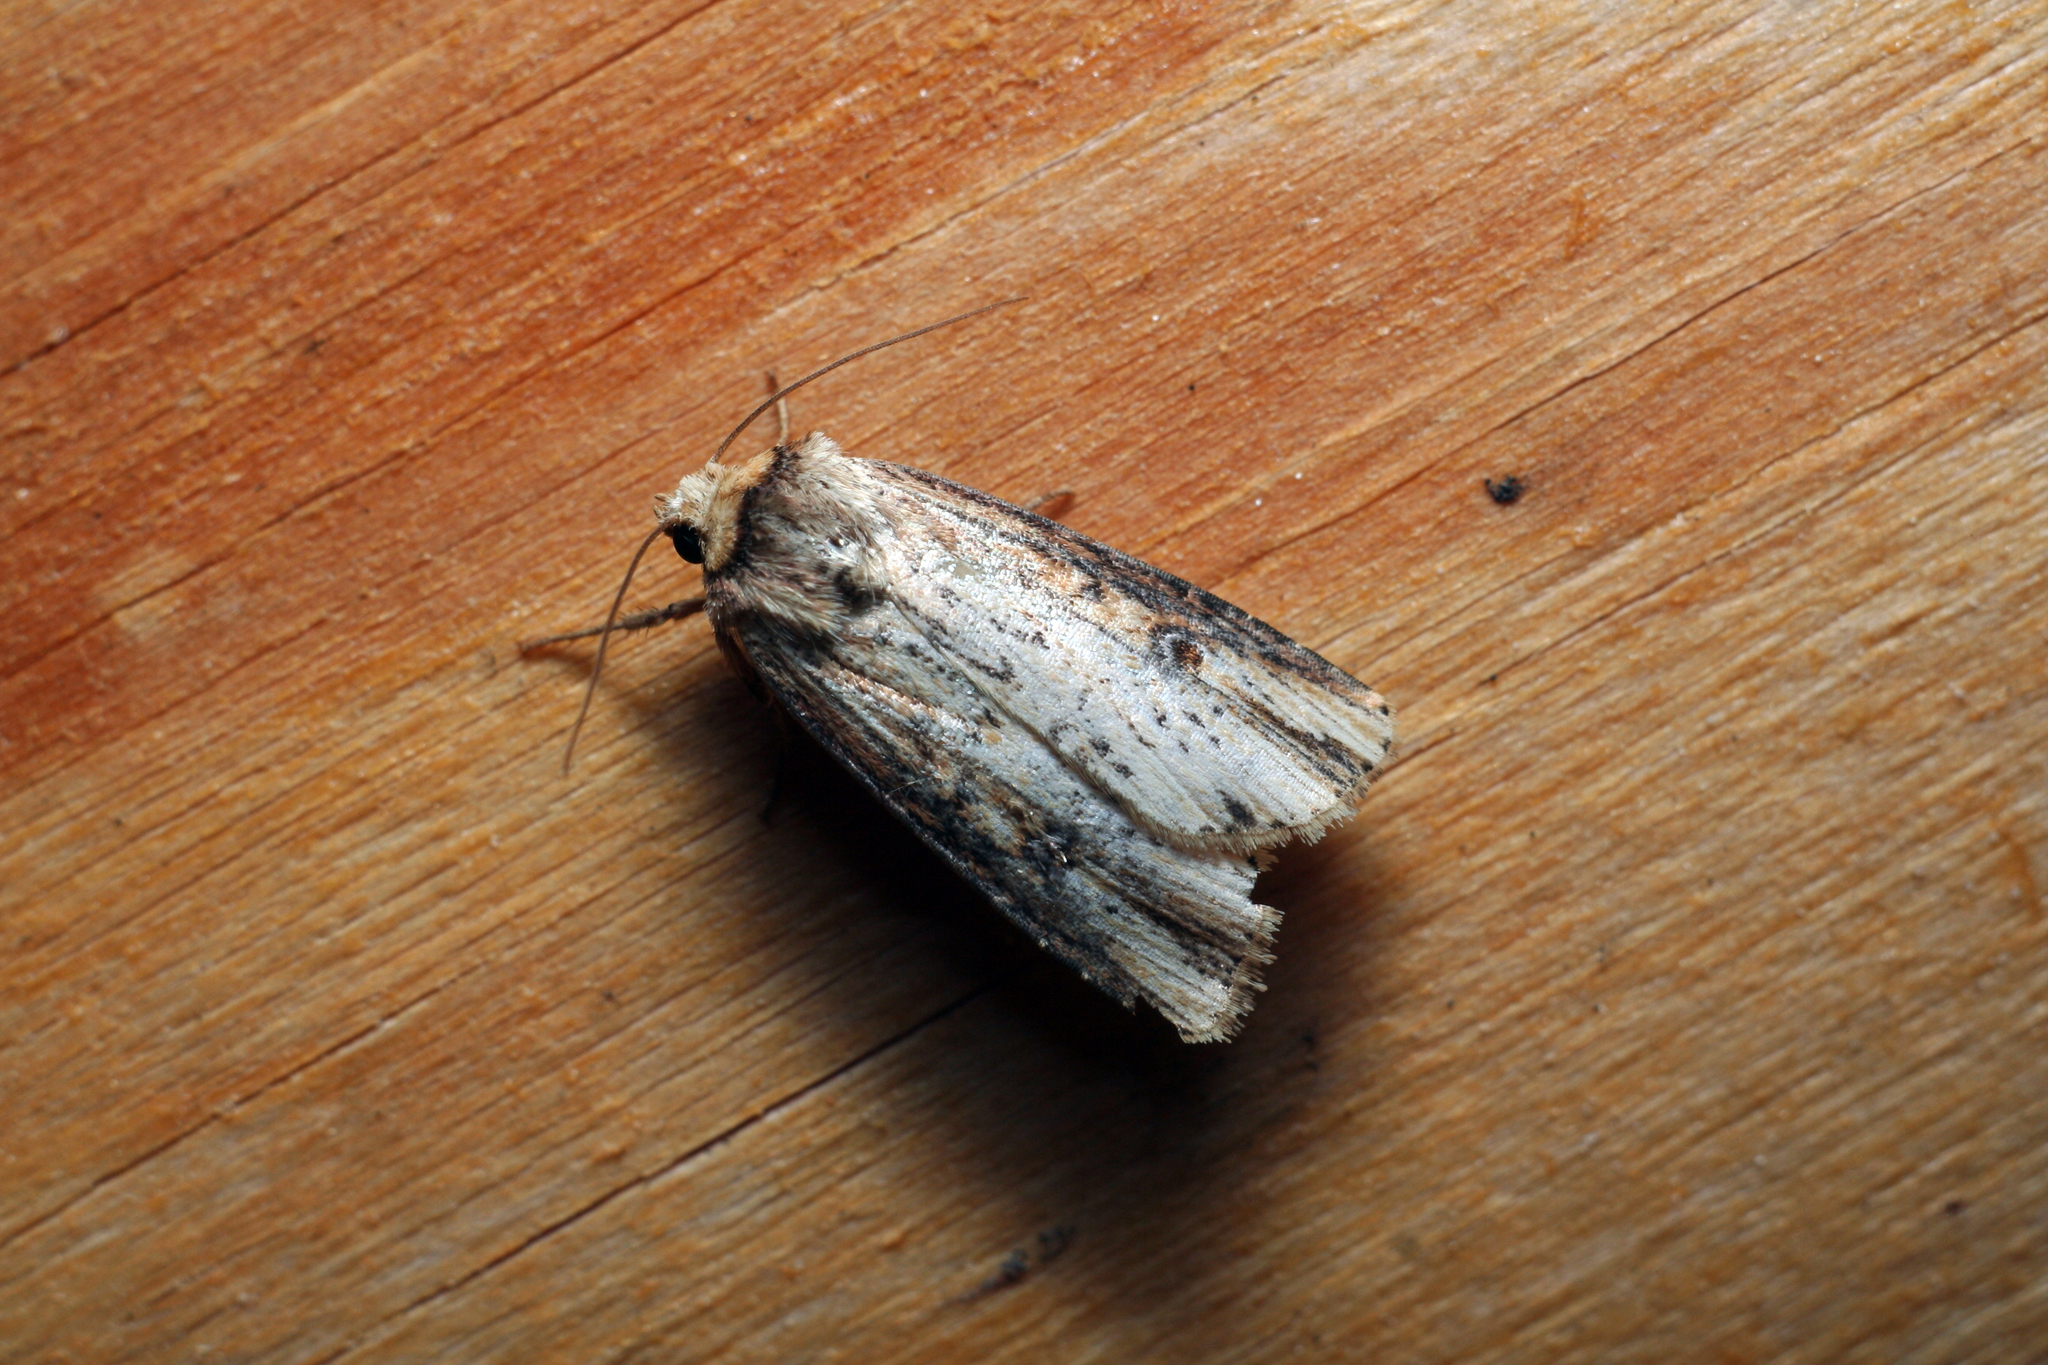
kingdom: Animalia
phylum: Arthropoda
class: Insecta
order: Lepidoptera
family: Noctuidae
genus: Axylia
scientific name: Axylia putris
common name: Flame
